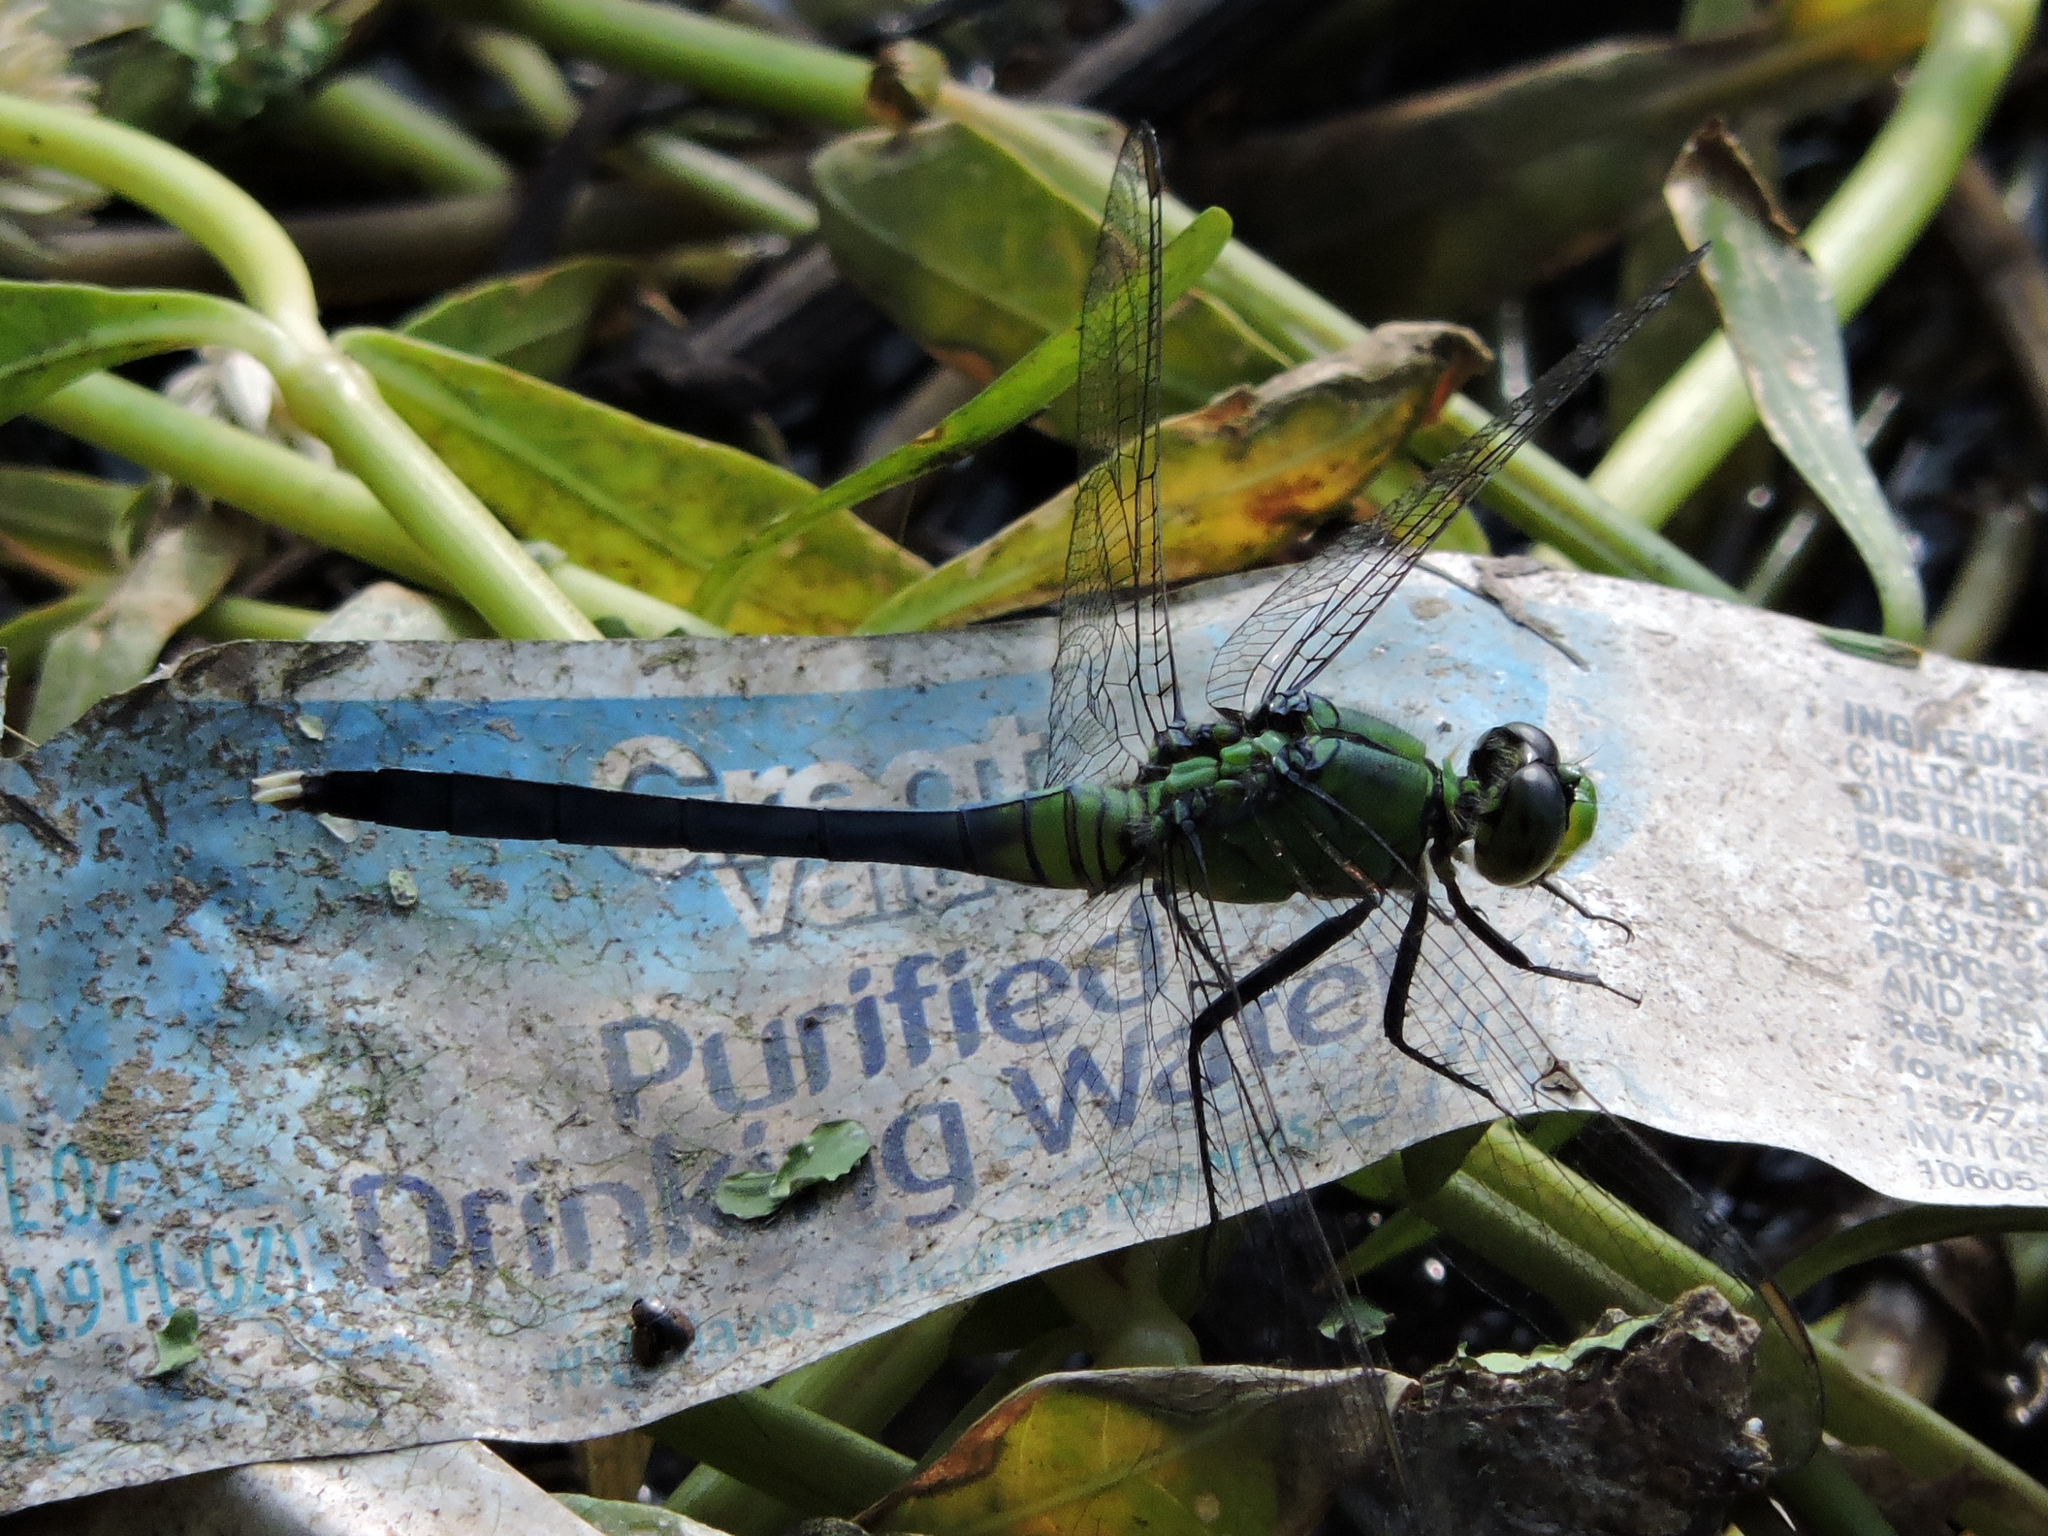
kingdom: Animalia
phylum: Arthropoda
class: Insecta
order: Odonata
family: Libellulidae
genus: Erythemis
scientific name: Erythemis simplicicollis
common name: Eastern pondhawk
